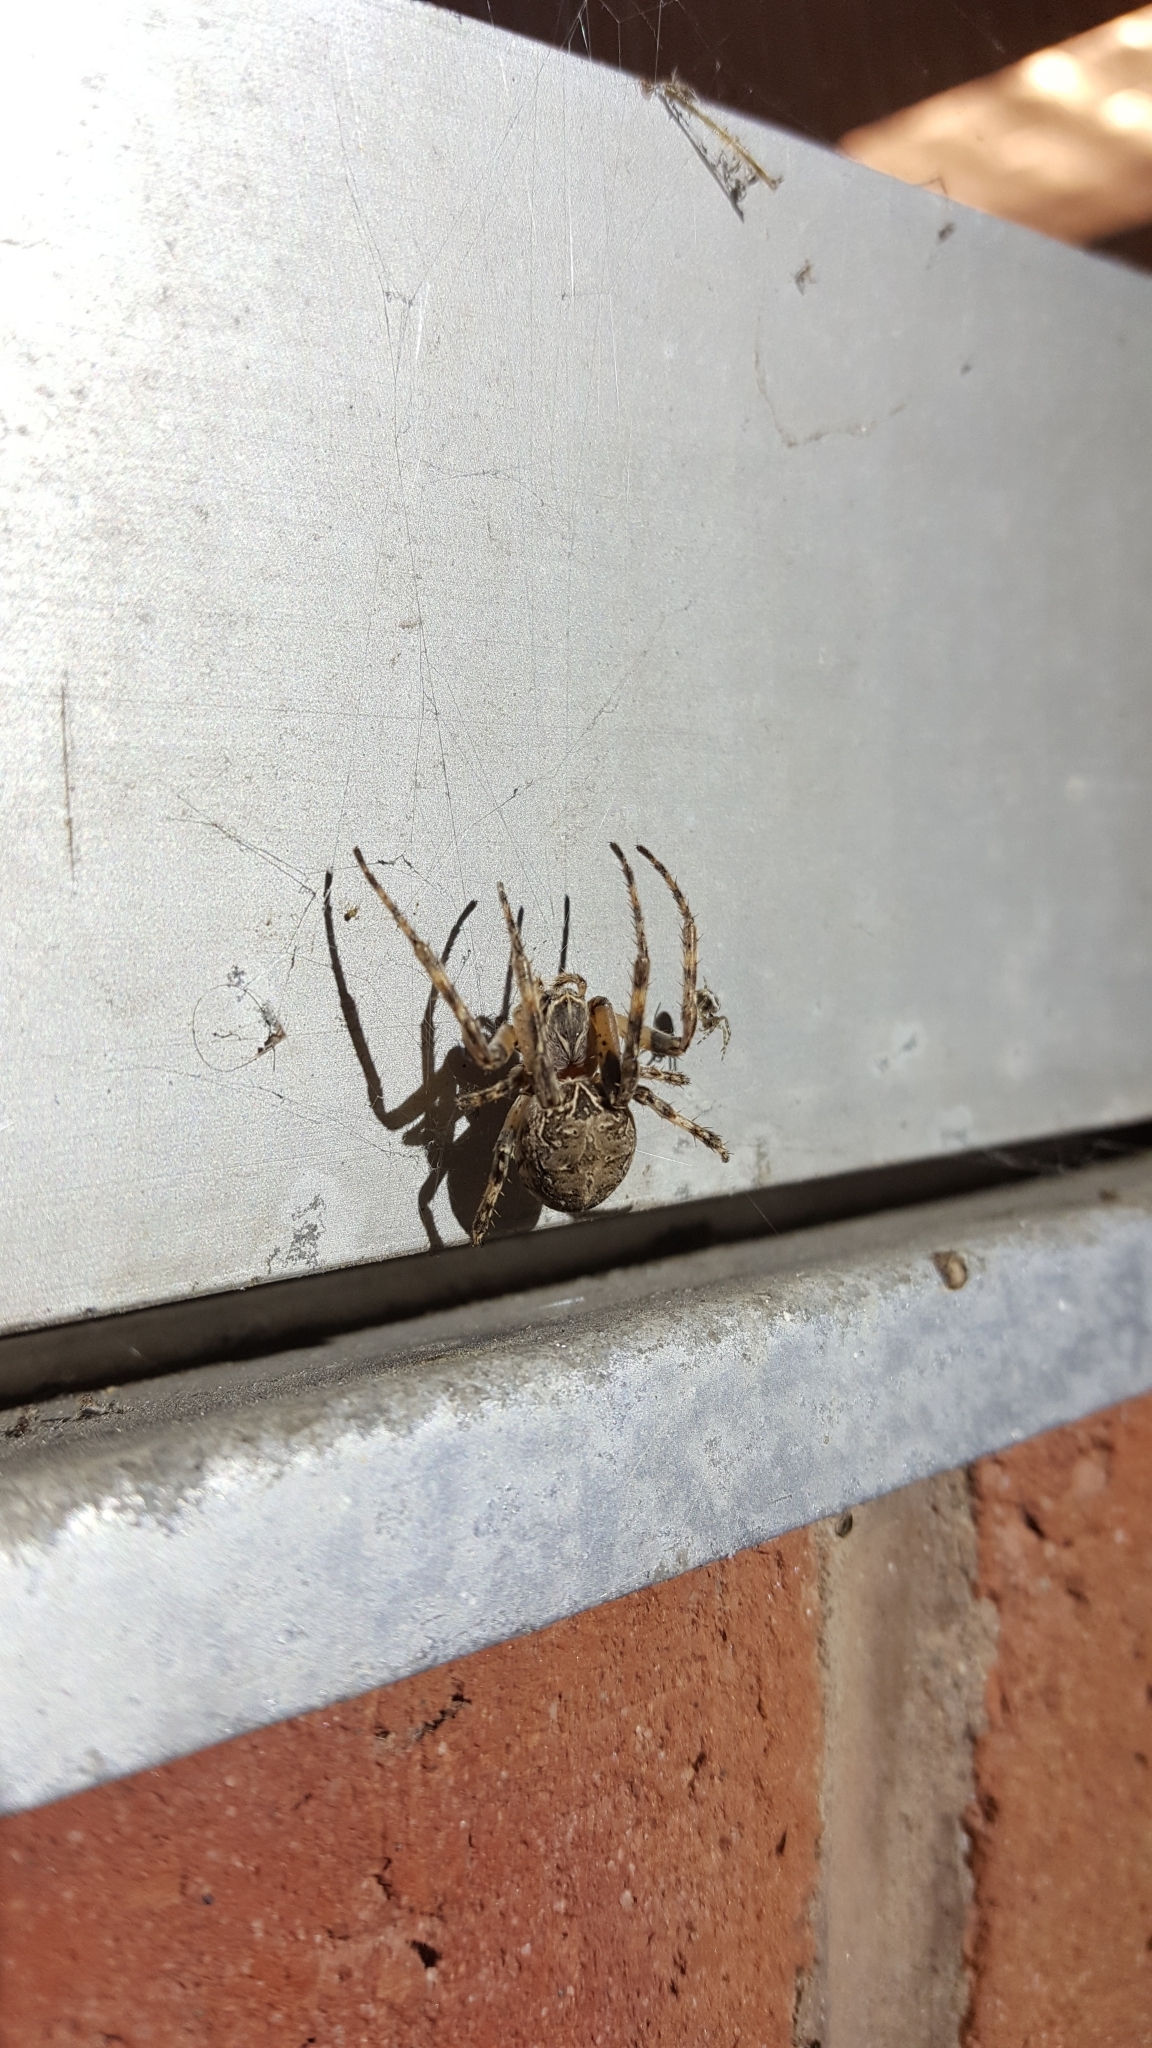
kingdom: Animalia
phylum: Arthropoda
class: Arachnida
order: Araneae
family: Araneidae
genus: Larinioides
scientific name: Larinioides sclopetarius
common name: Bridge orbweaver
